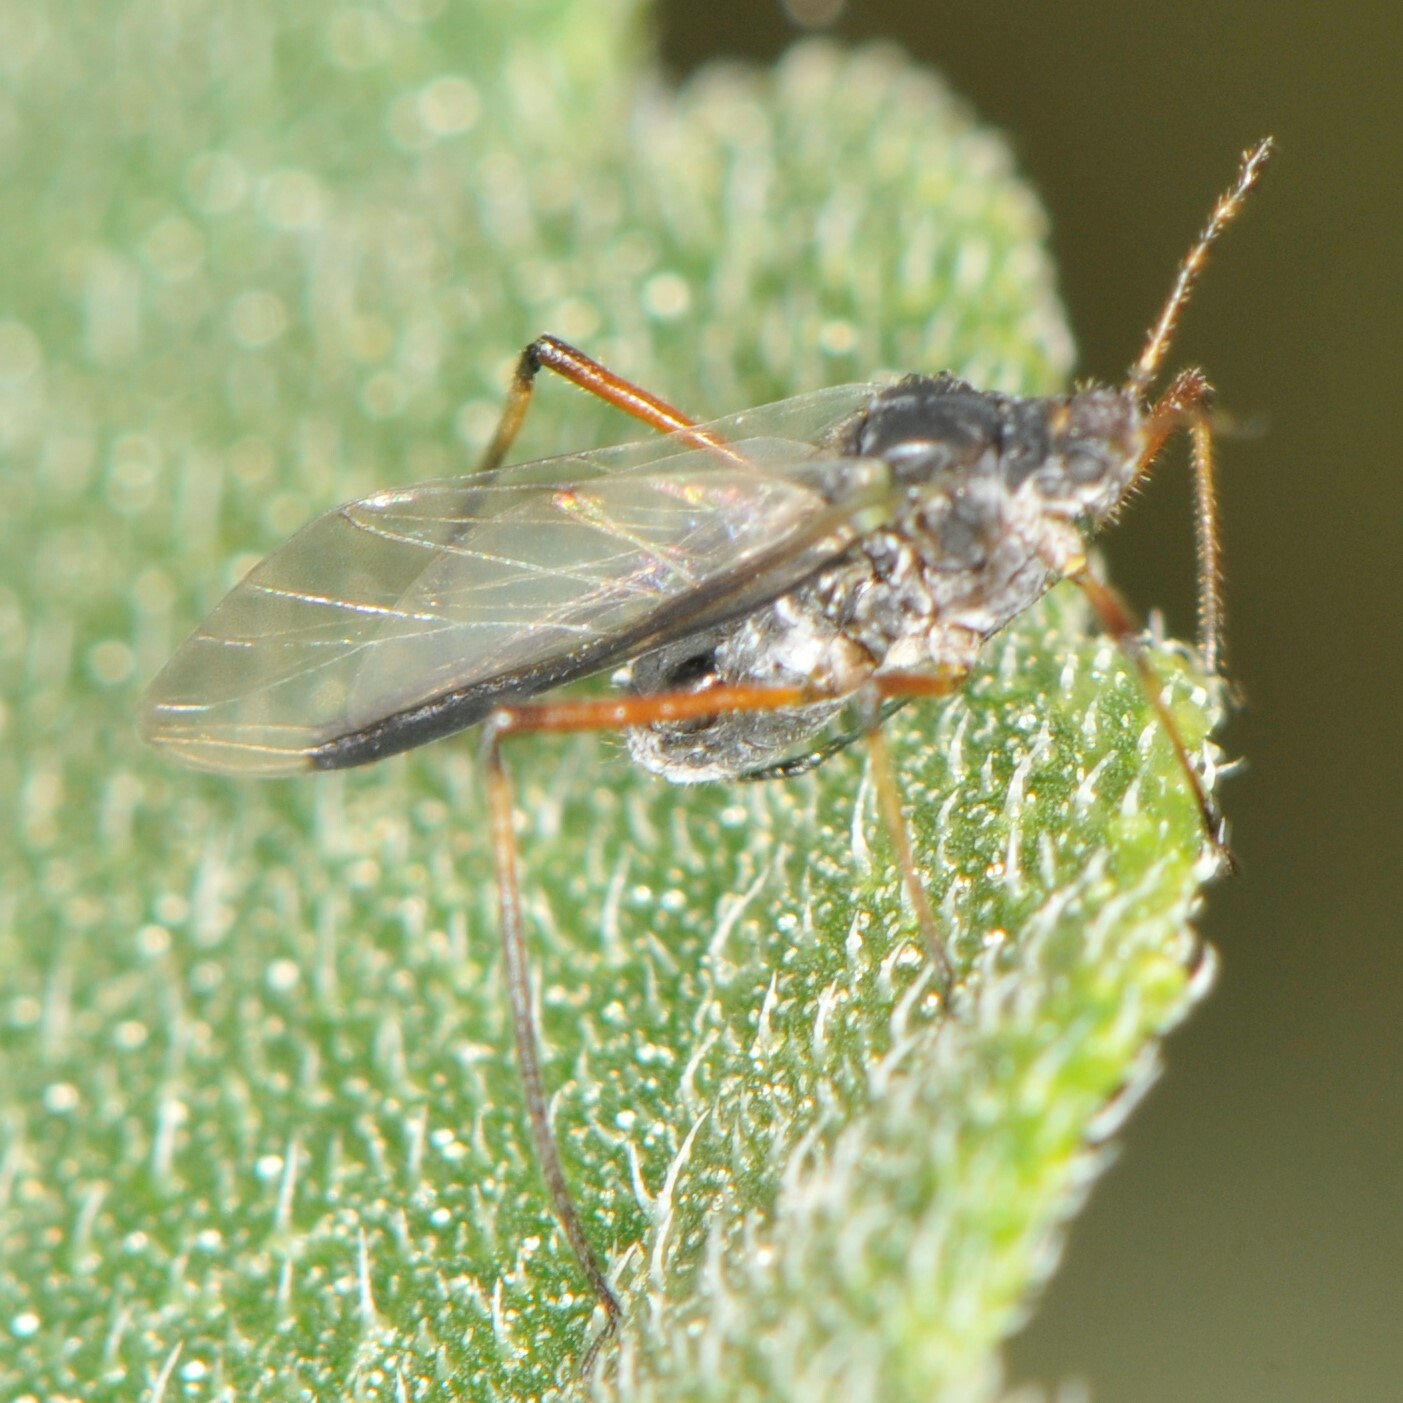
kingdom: Animalia
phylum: Arthropoda
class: Insecta
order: Hemiptera
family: Aphididae
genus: Cinara
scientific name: Cinara
